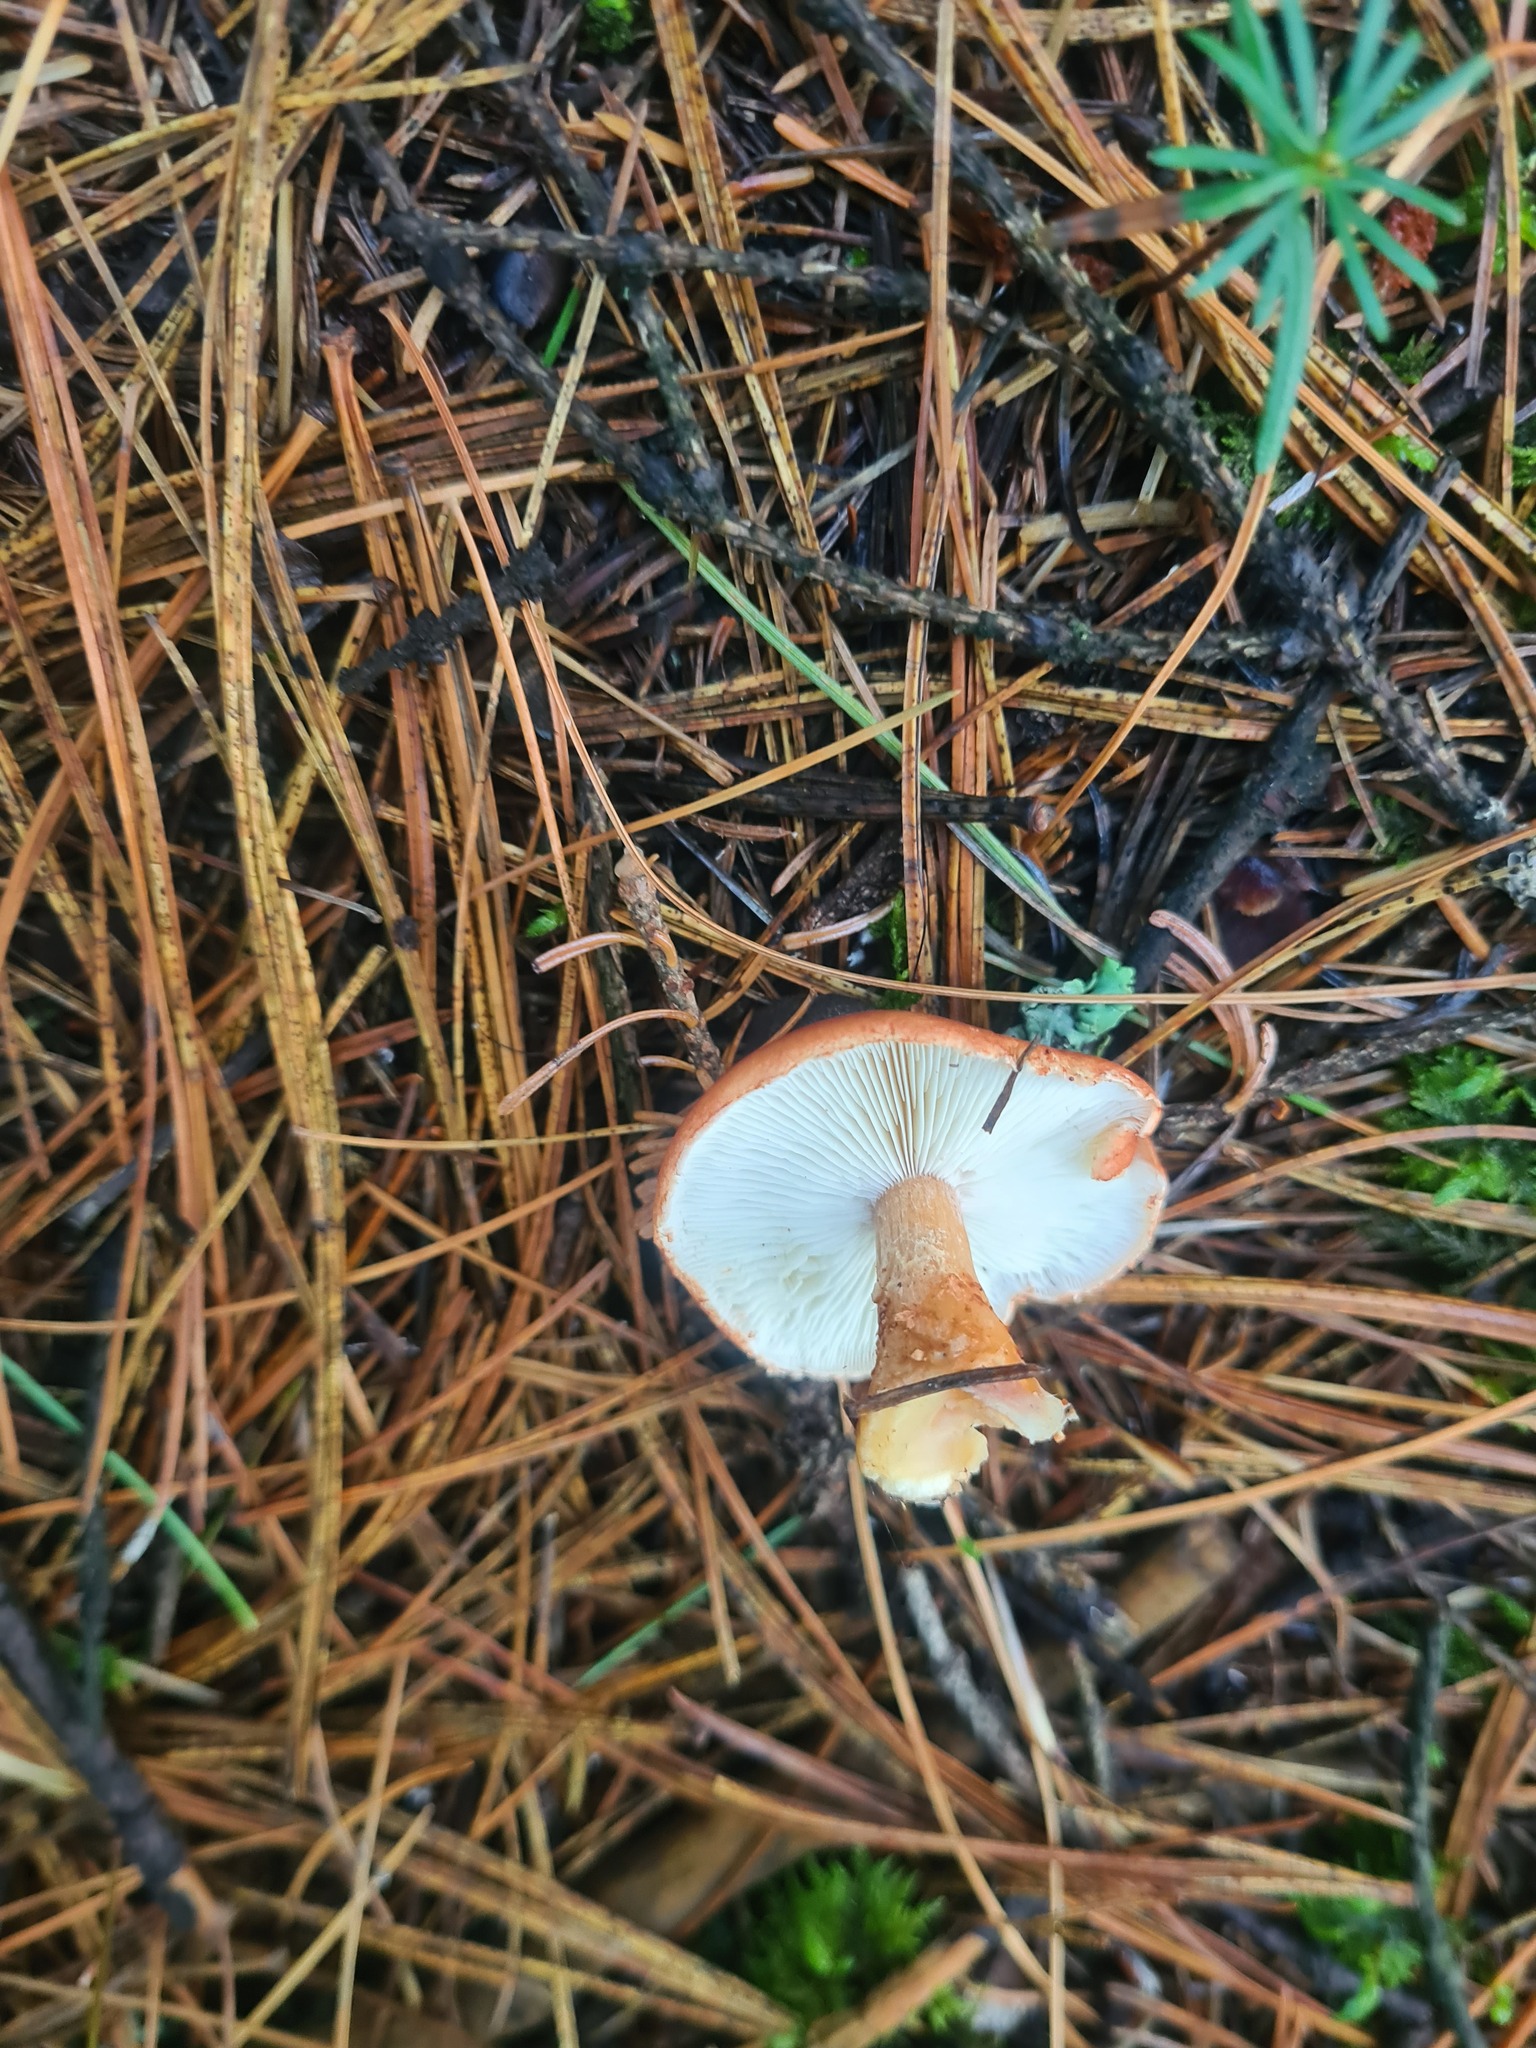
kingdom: Fungi
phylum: Basidiomycota
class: Agaricomycetes
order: Agaricales
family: Agaricaceae
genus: Cystodermella
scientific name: Cystodermella cinnabarina
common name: Cinnabar powdercap
